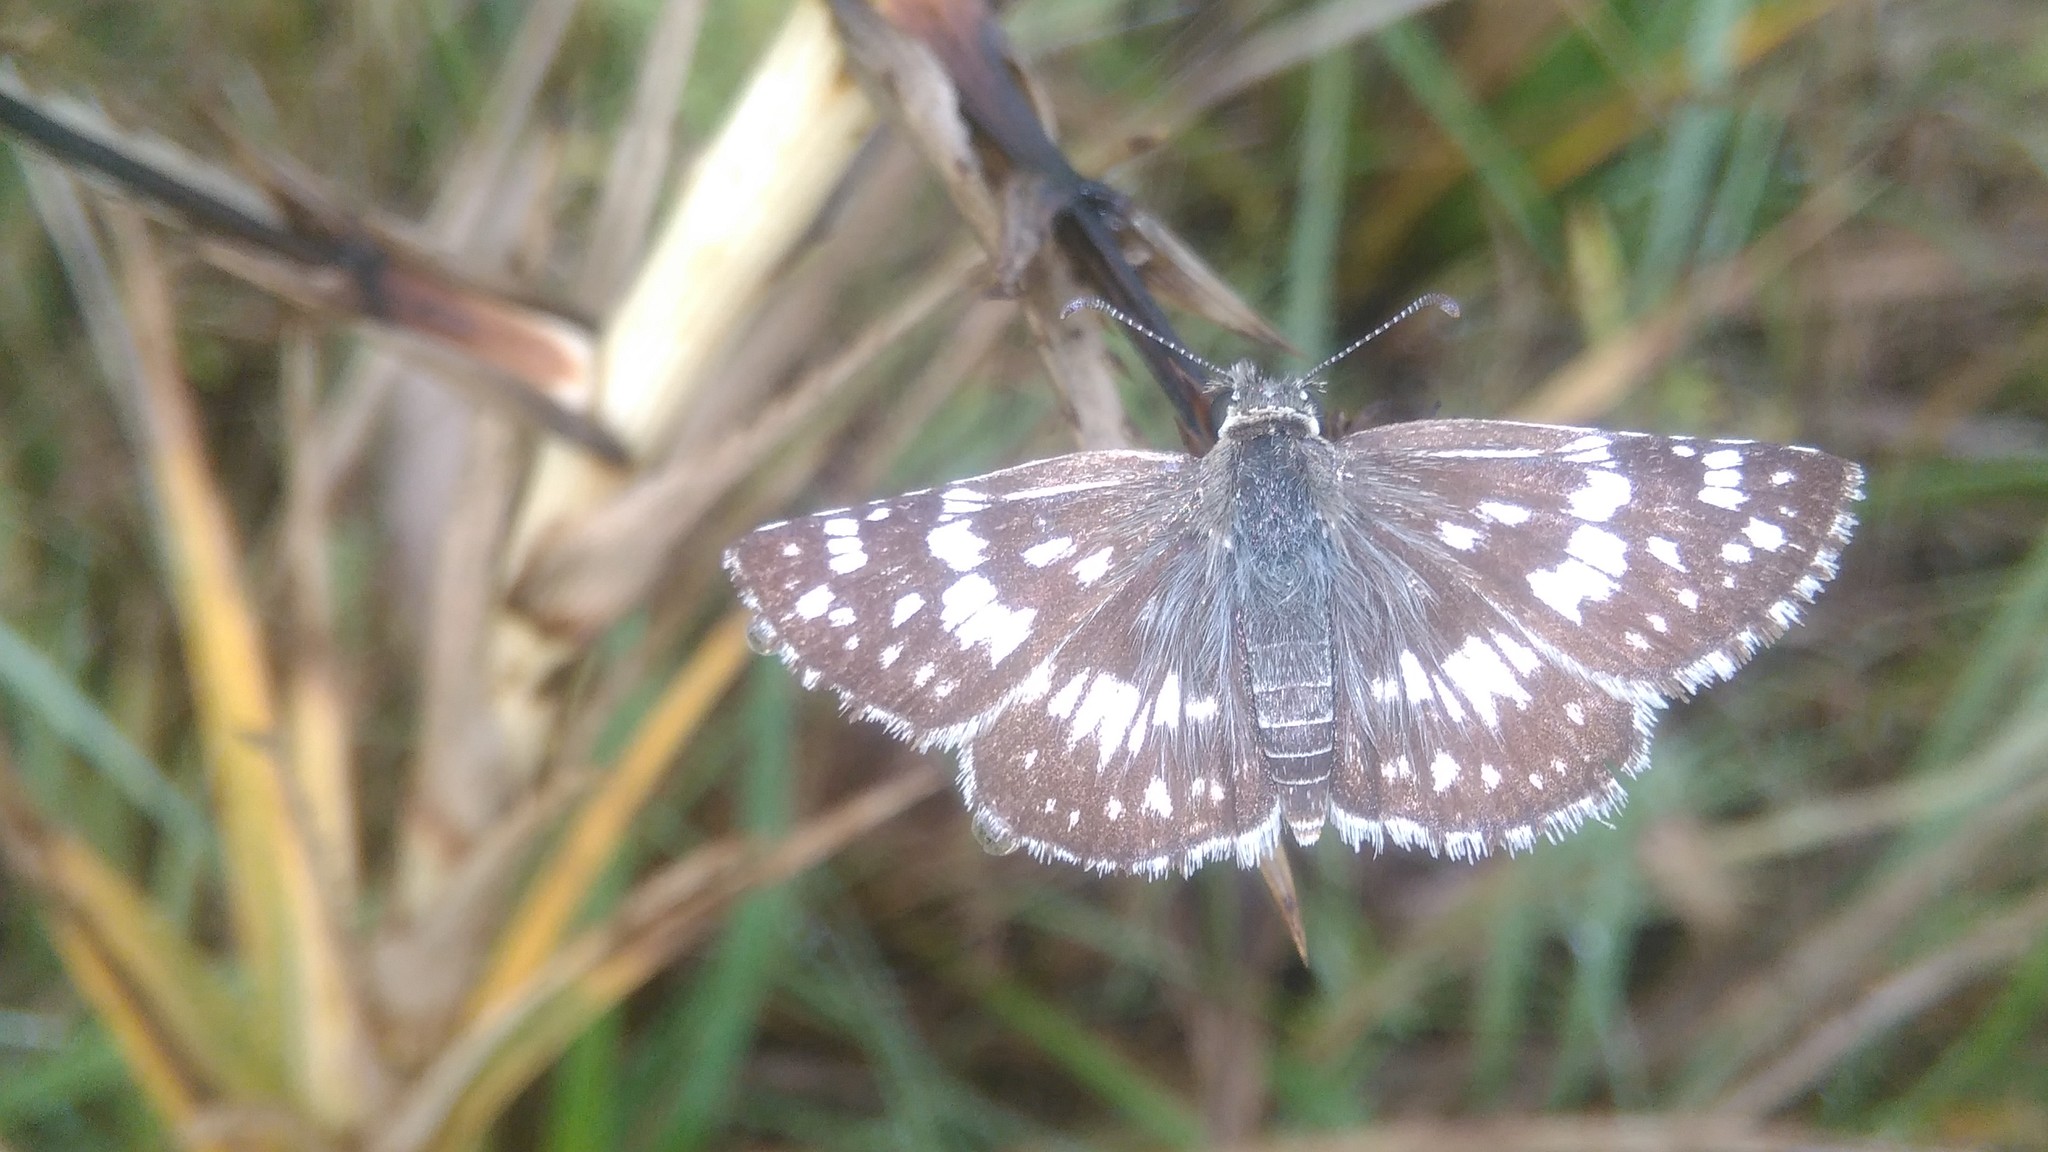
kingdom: Animalia
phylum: Arthropoda
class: Insecta
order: Lepidoptera
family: Hesperiidae
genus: Burnsius
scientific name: Burnsius orcynoides
